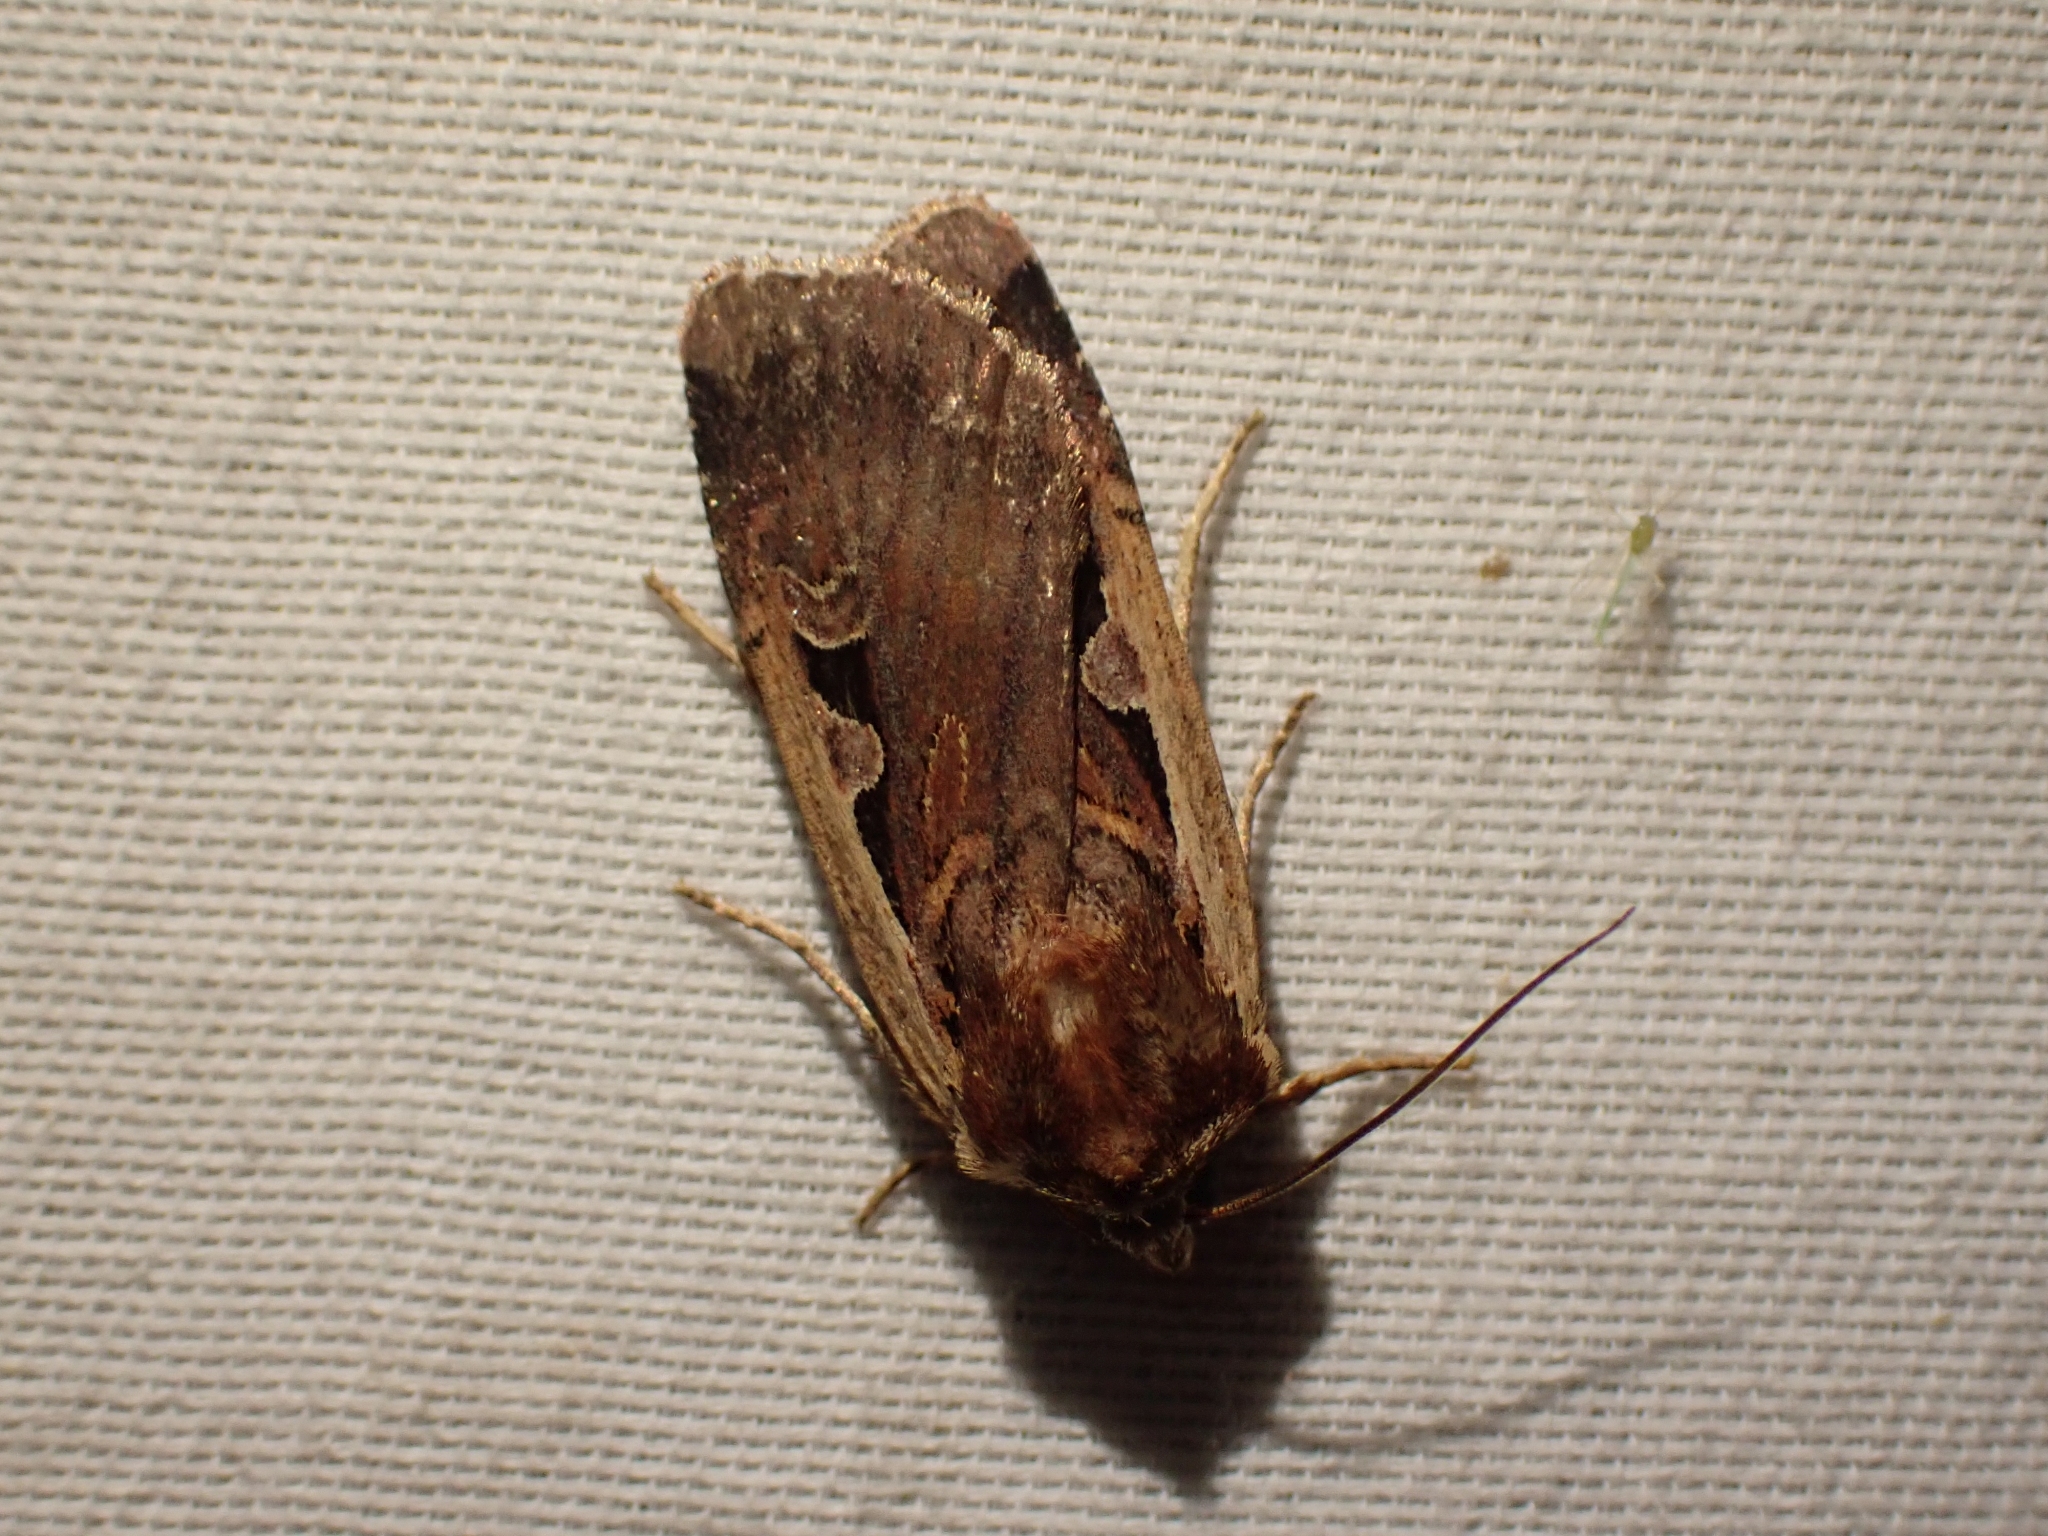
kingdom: Animalia
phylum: Arthropoda
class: Insecta
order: Lepidoptera
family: Noctuidae
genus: Parabagrotis
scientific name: Parabagrotis exsertistigma
